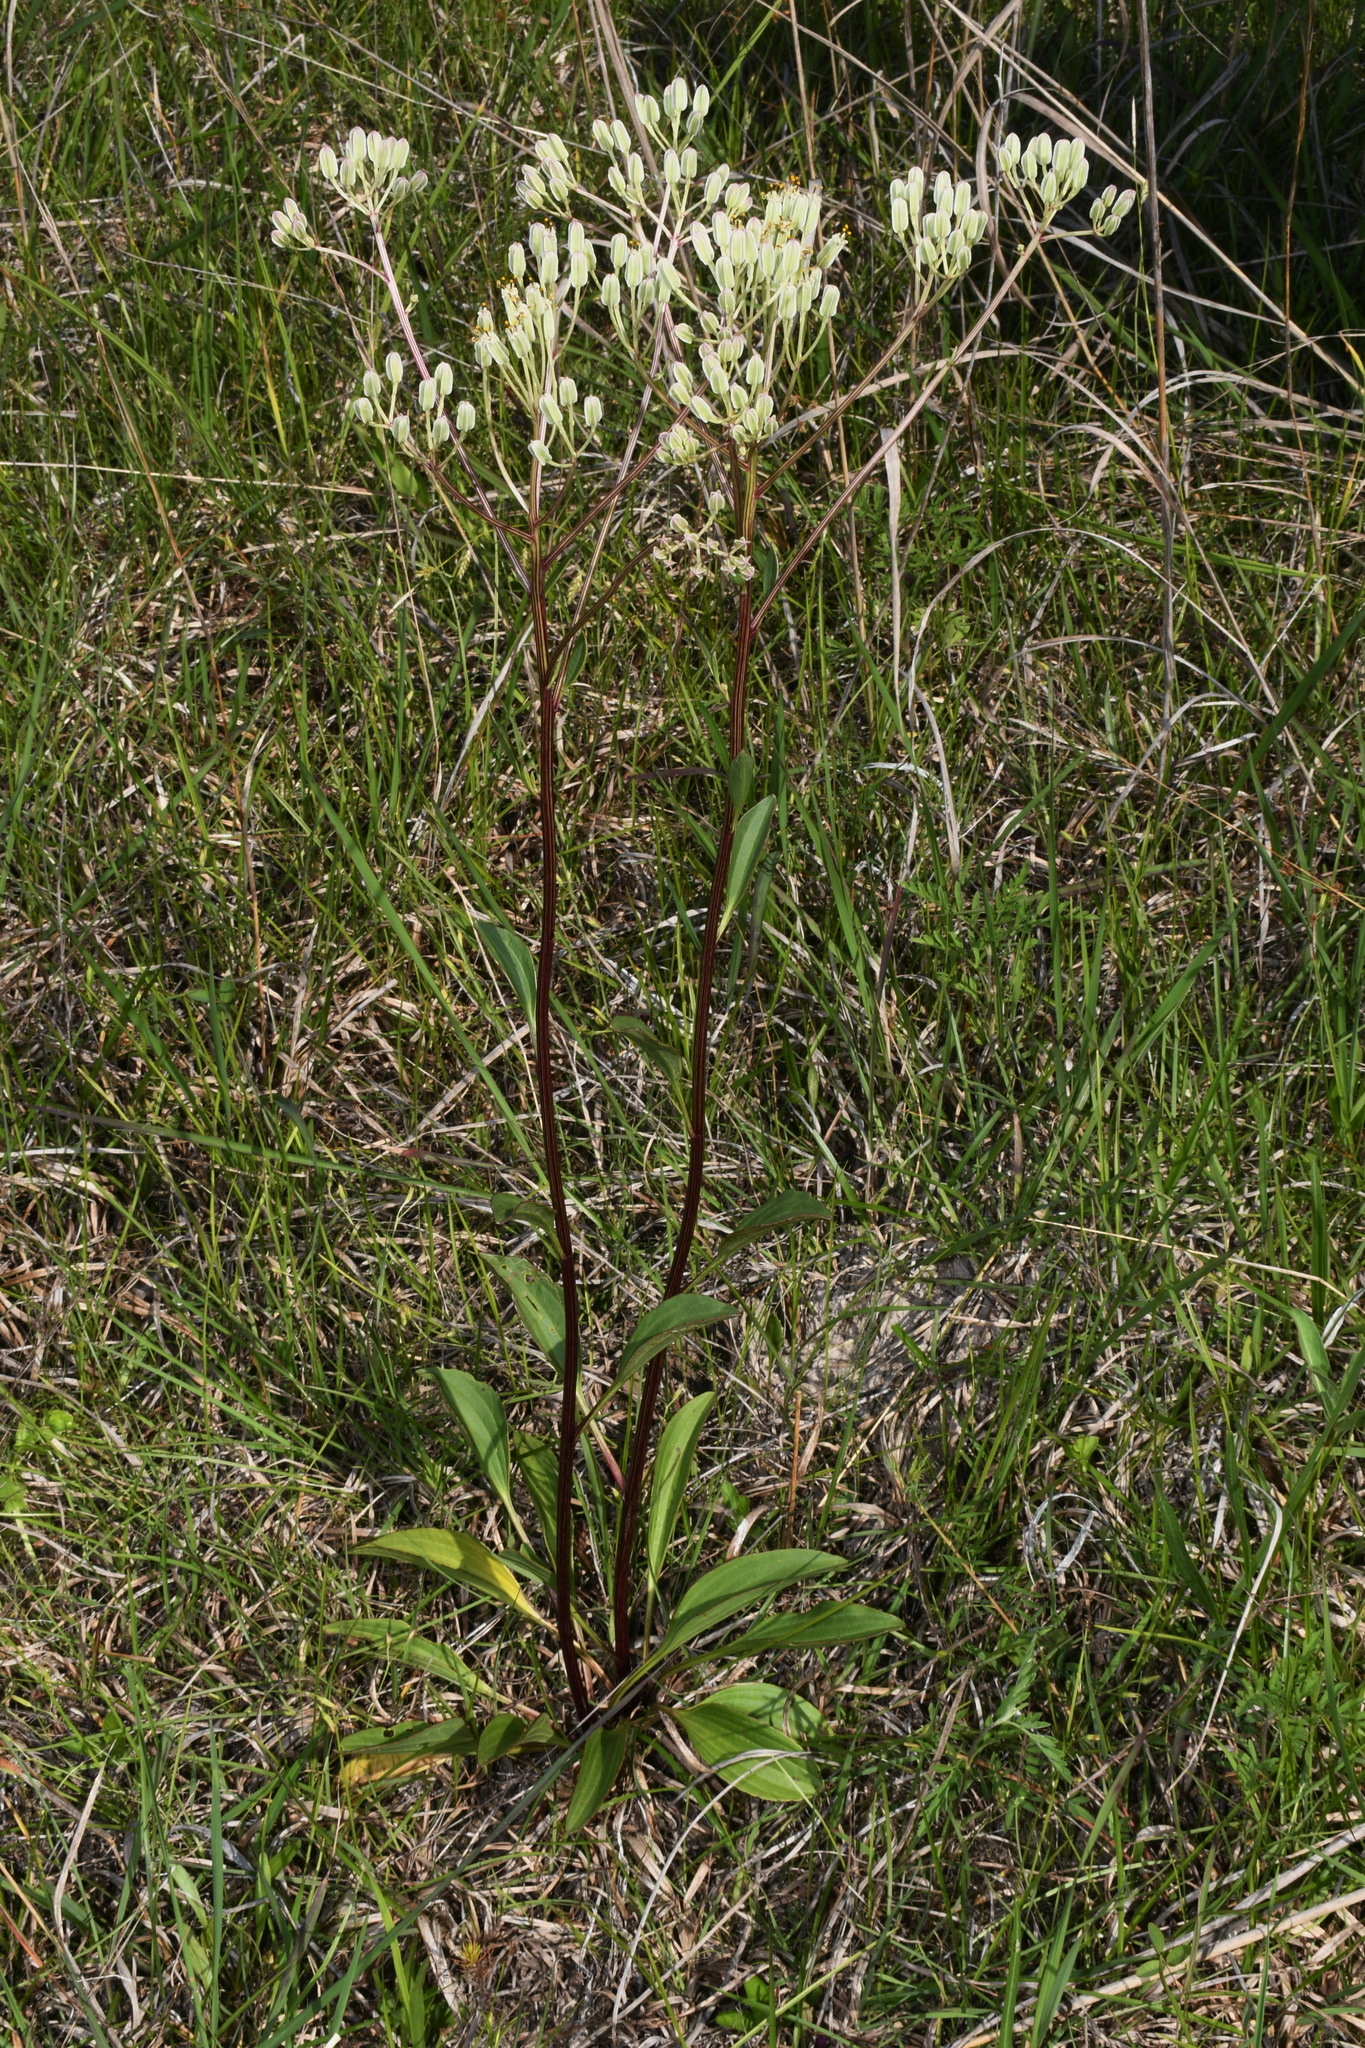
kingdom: Plantae
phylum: Tracheophyta
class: Magnoliopsida
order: Asterales
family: Asteraceae
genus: Arnoglossum
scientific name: Arnoglossum plantagineum
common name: Groove-stemmed indian-plantain
